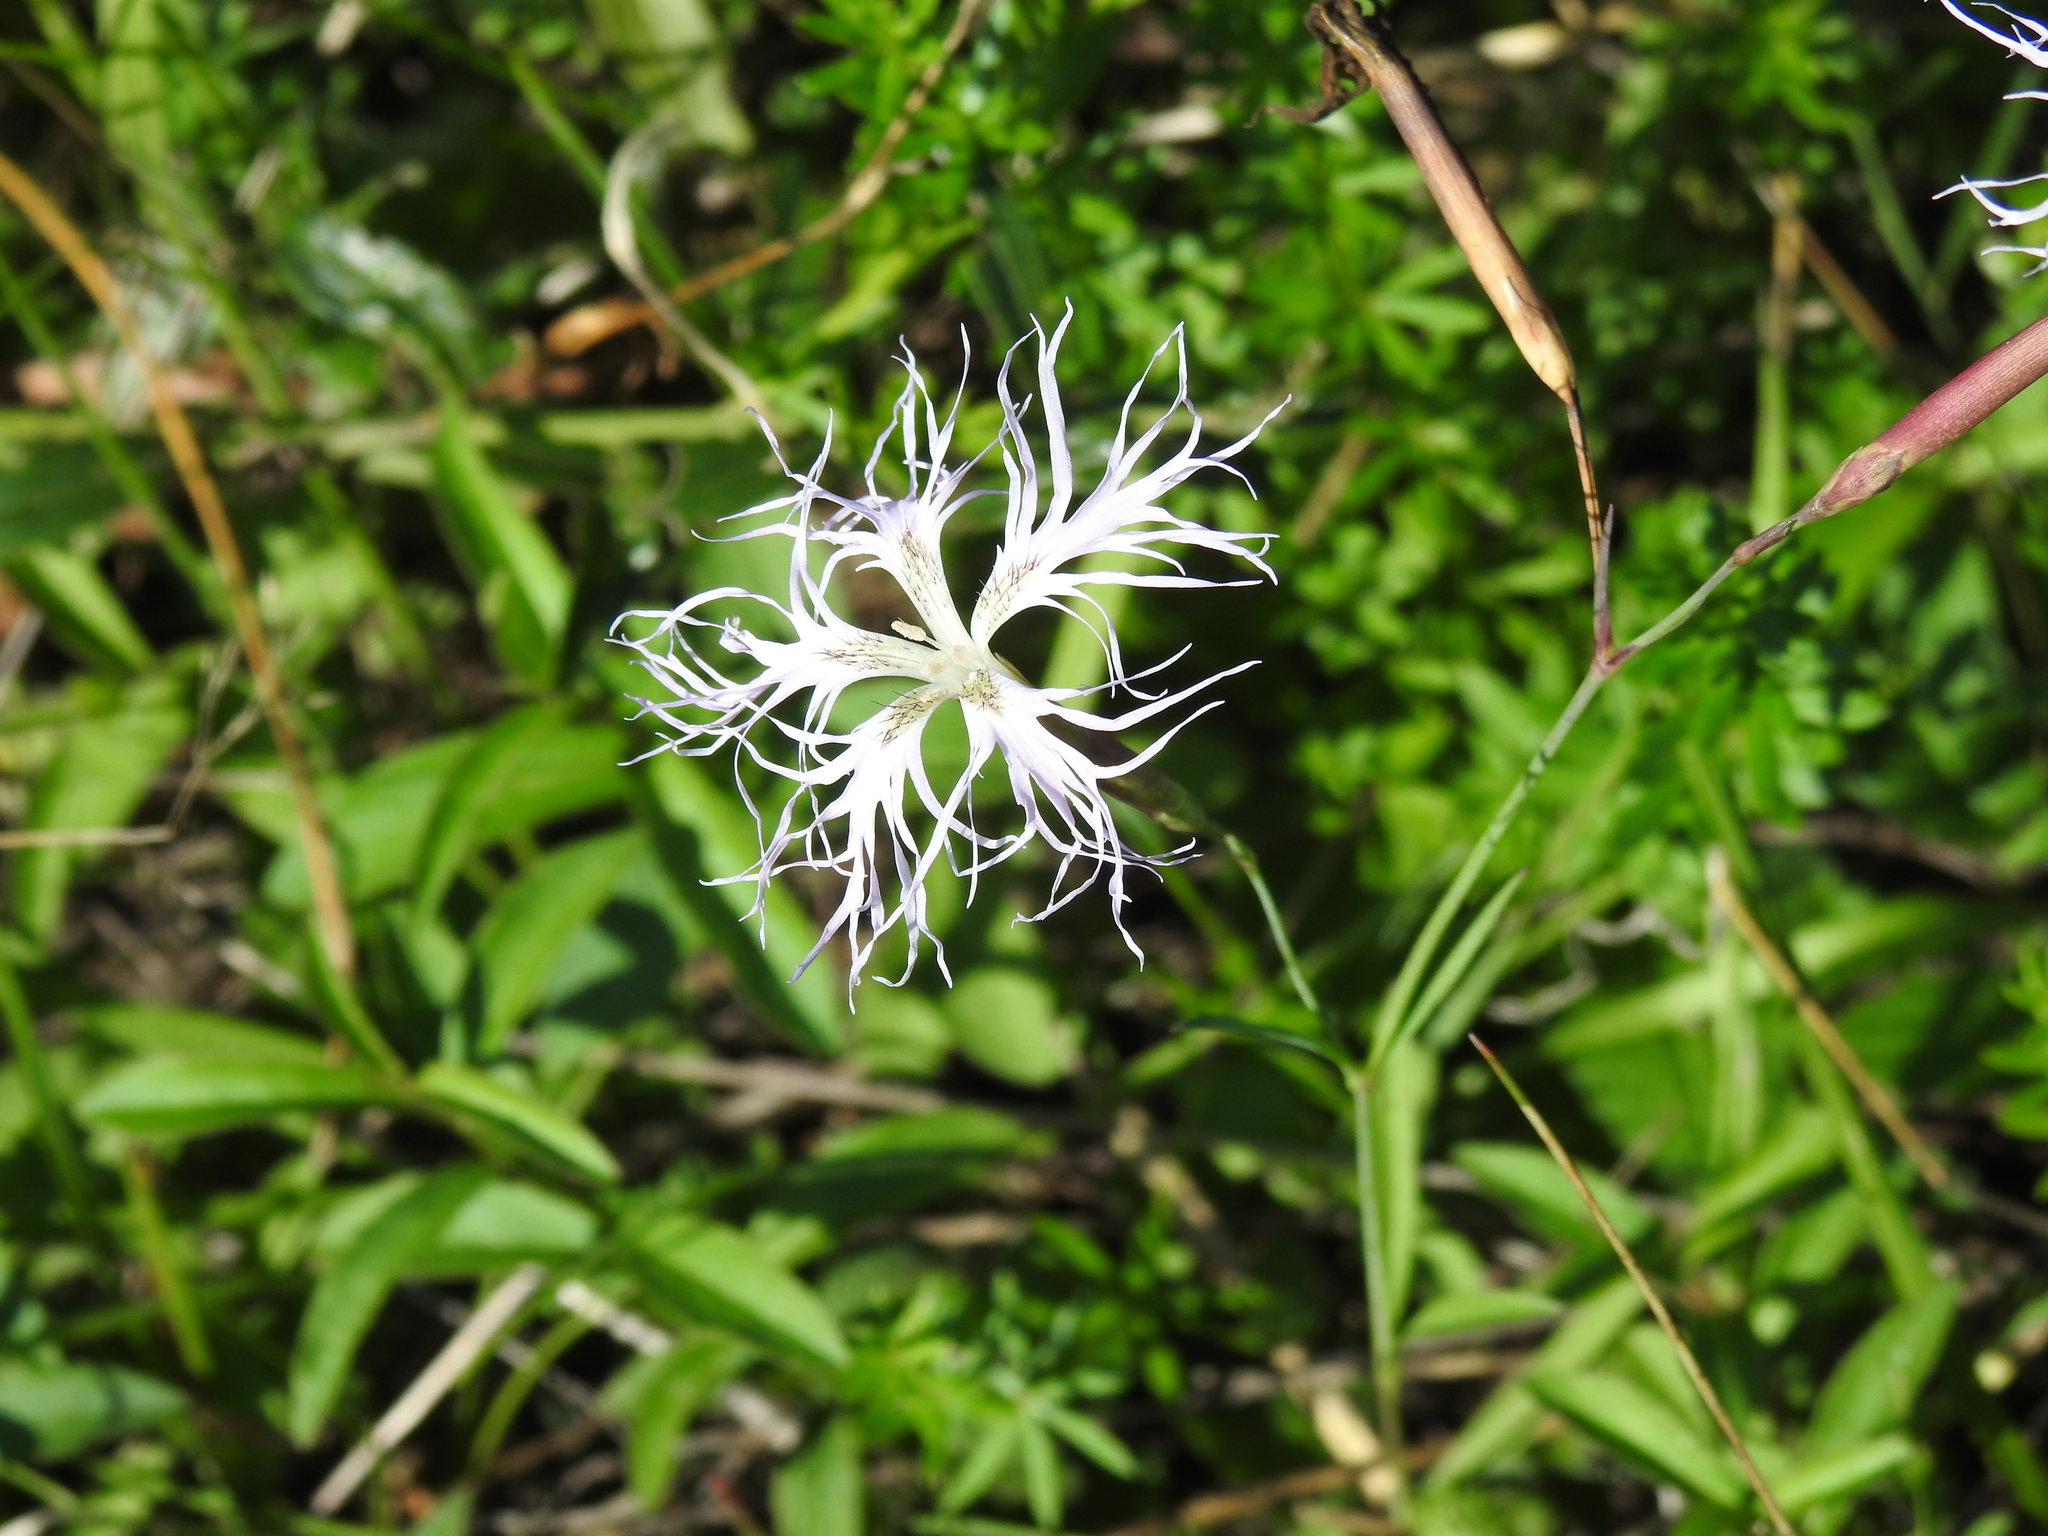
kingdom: Plantae
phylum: Tracheophyta
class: Magnoliopsida
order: Caryophyllales
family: Caryophyllaceae
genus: Dianthus
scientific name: Dianthus superbus
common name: Fringed pink
